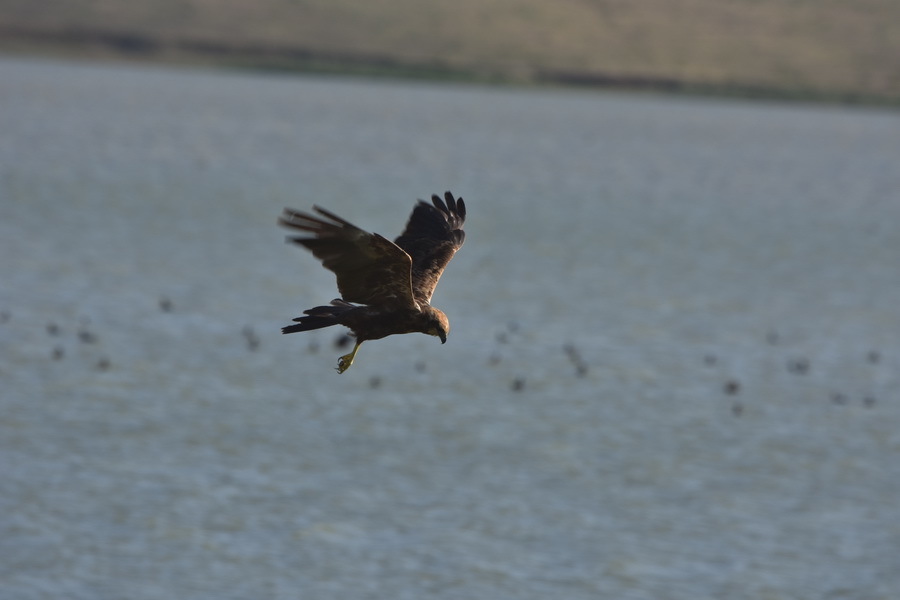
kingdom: Animalia
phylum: Chordata
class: Aves
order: Accipitriformes
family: Accipitridae
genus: Circus
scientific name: Circus aeruginosus
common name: Western marsh harrier
